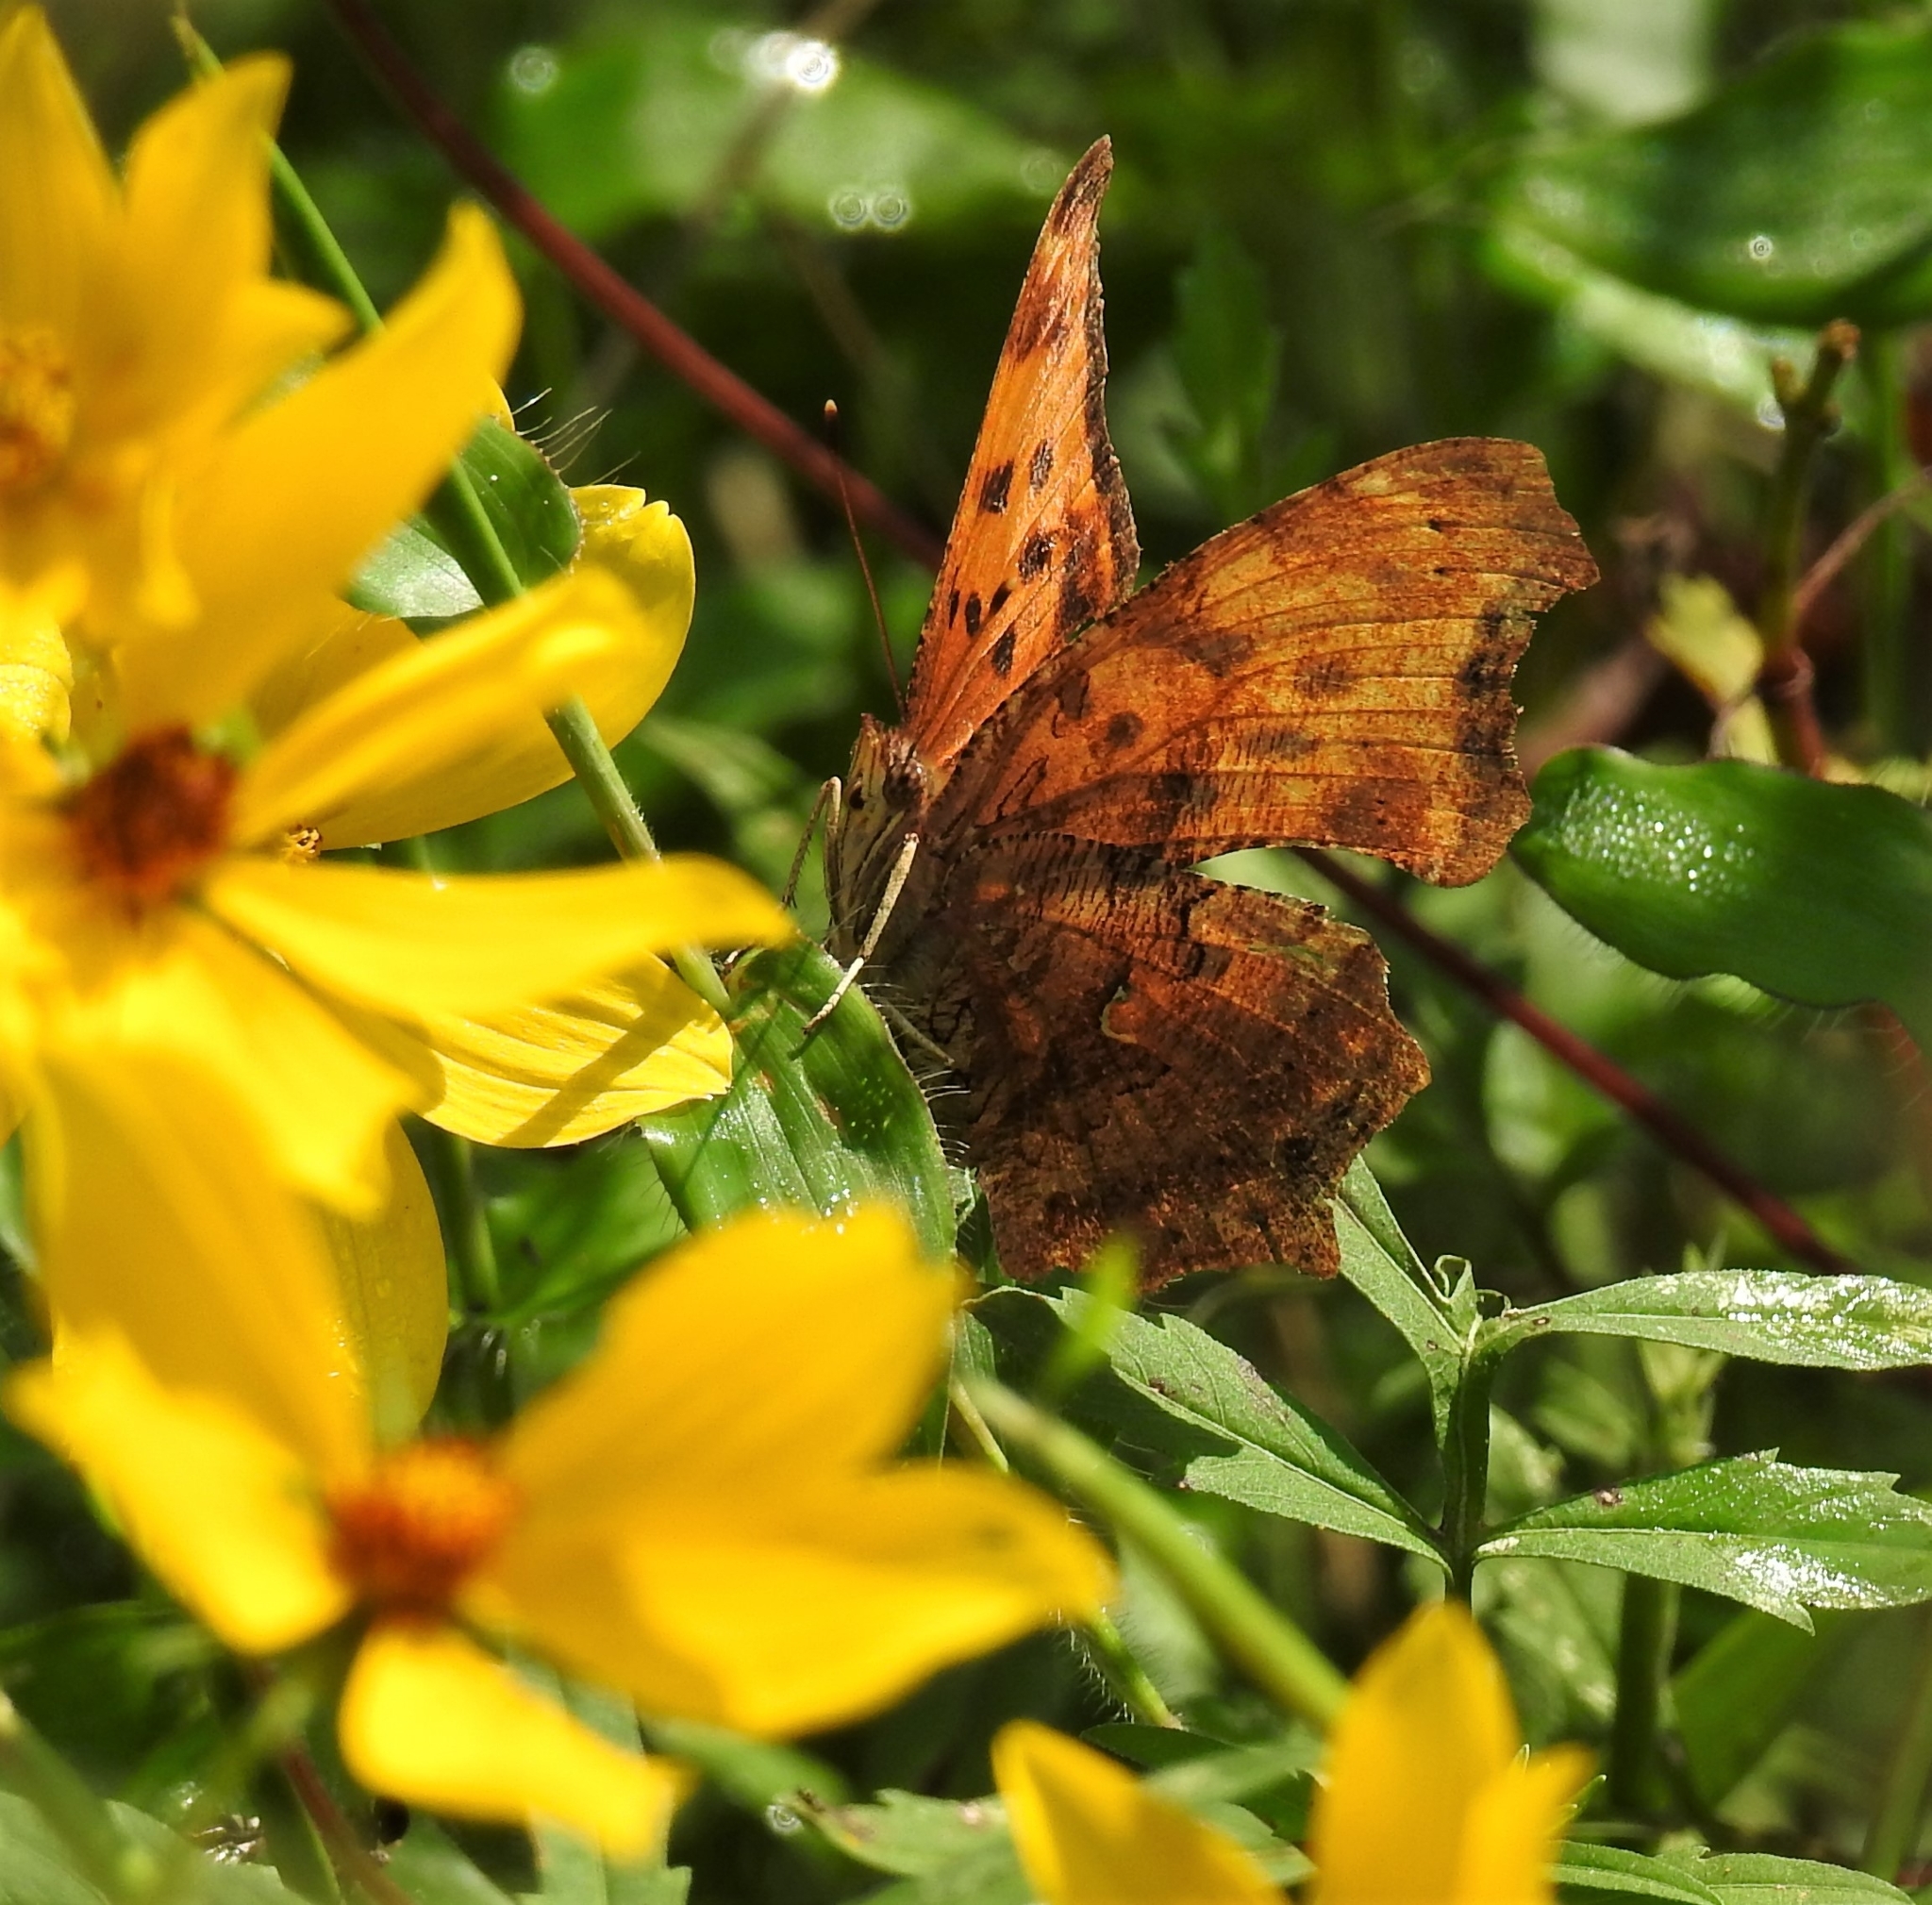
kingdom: Animalia
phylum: Arthropoda
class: Insecta
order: Lepidoptera
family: Nymphalidae
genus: Polygonia
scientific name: Polygonia comma
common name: Eastern comma
